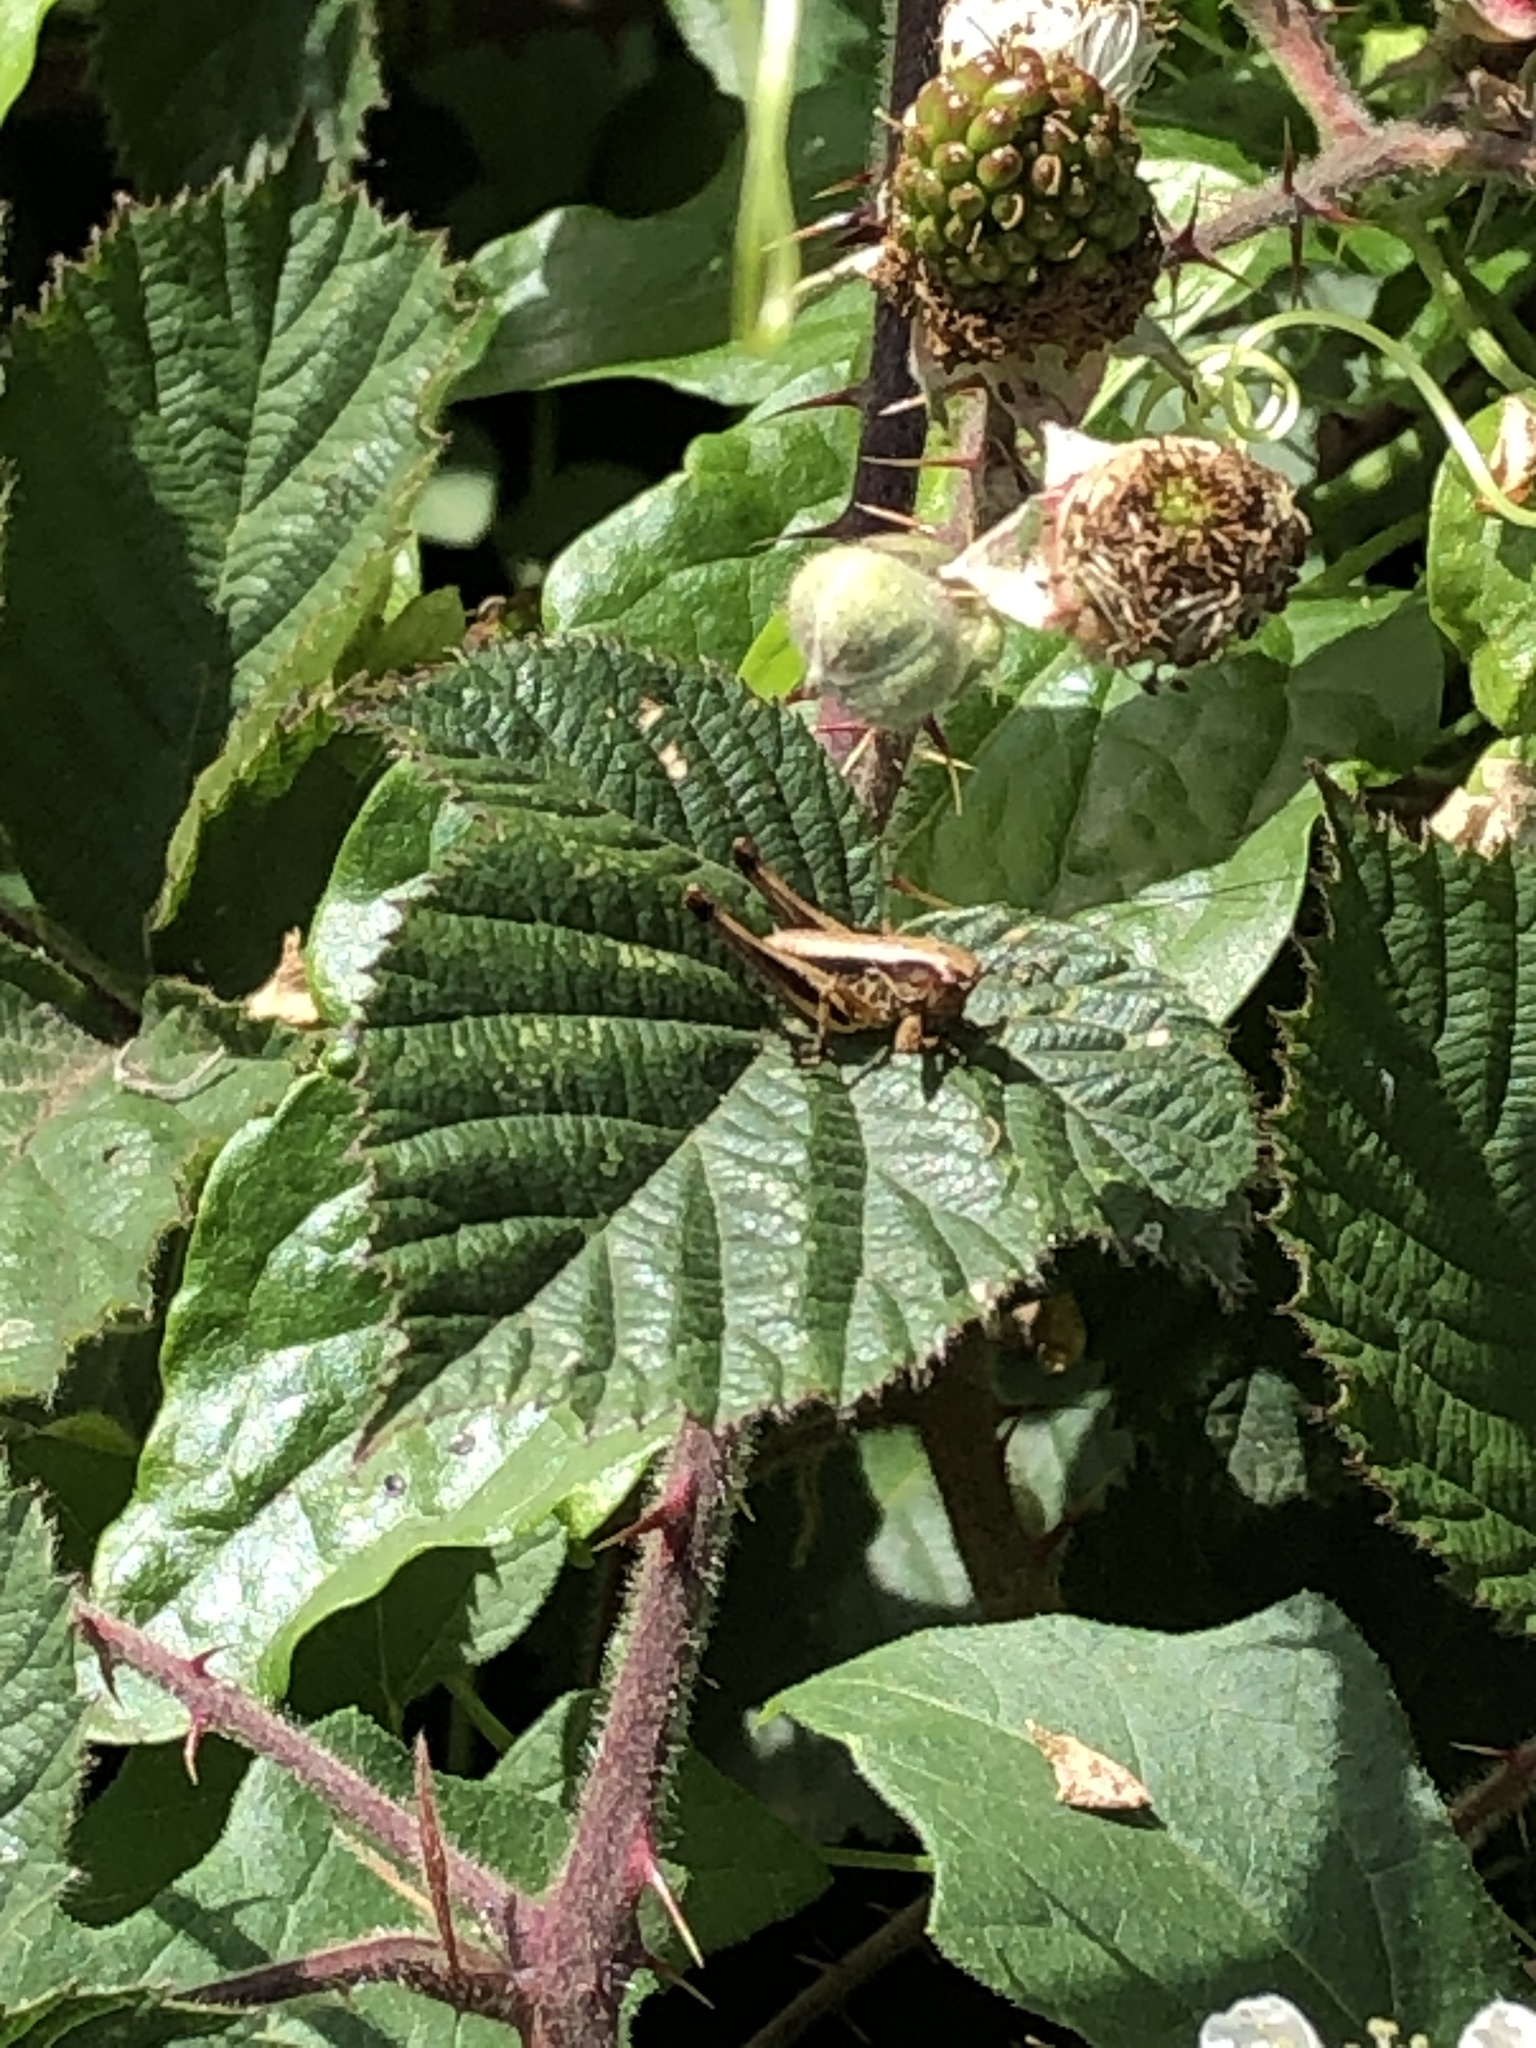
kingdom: Animalia
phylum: Arthropoda
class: Insecta
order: Orthoptera
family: Tettigoniidae
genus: Pholidoptera
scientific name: Pholidoptera griseoaptera
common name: Dark bush-cricket
